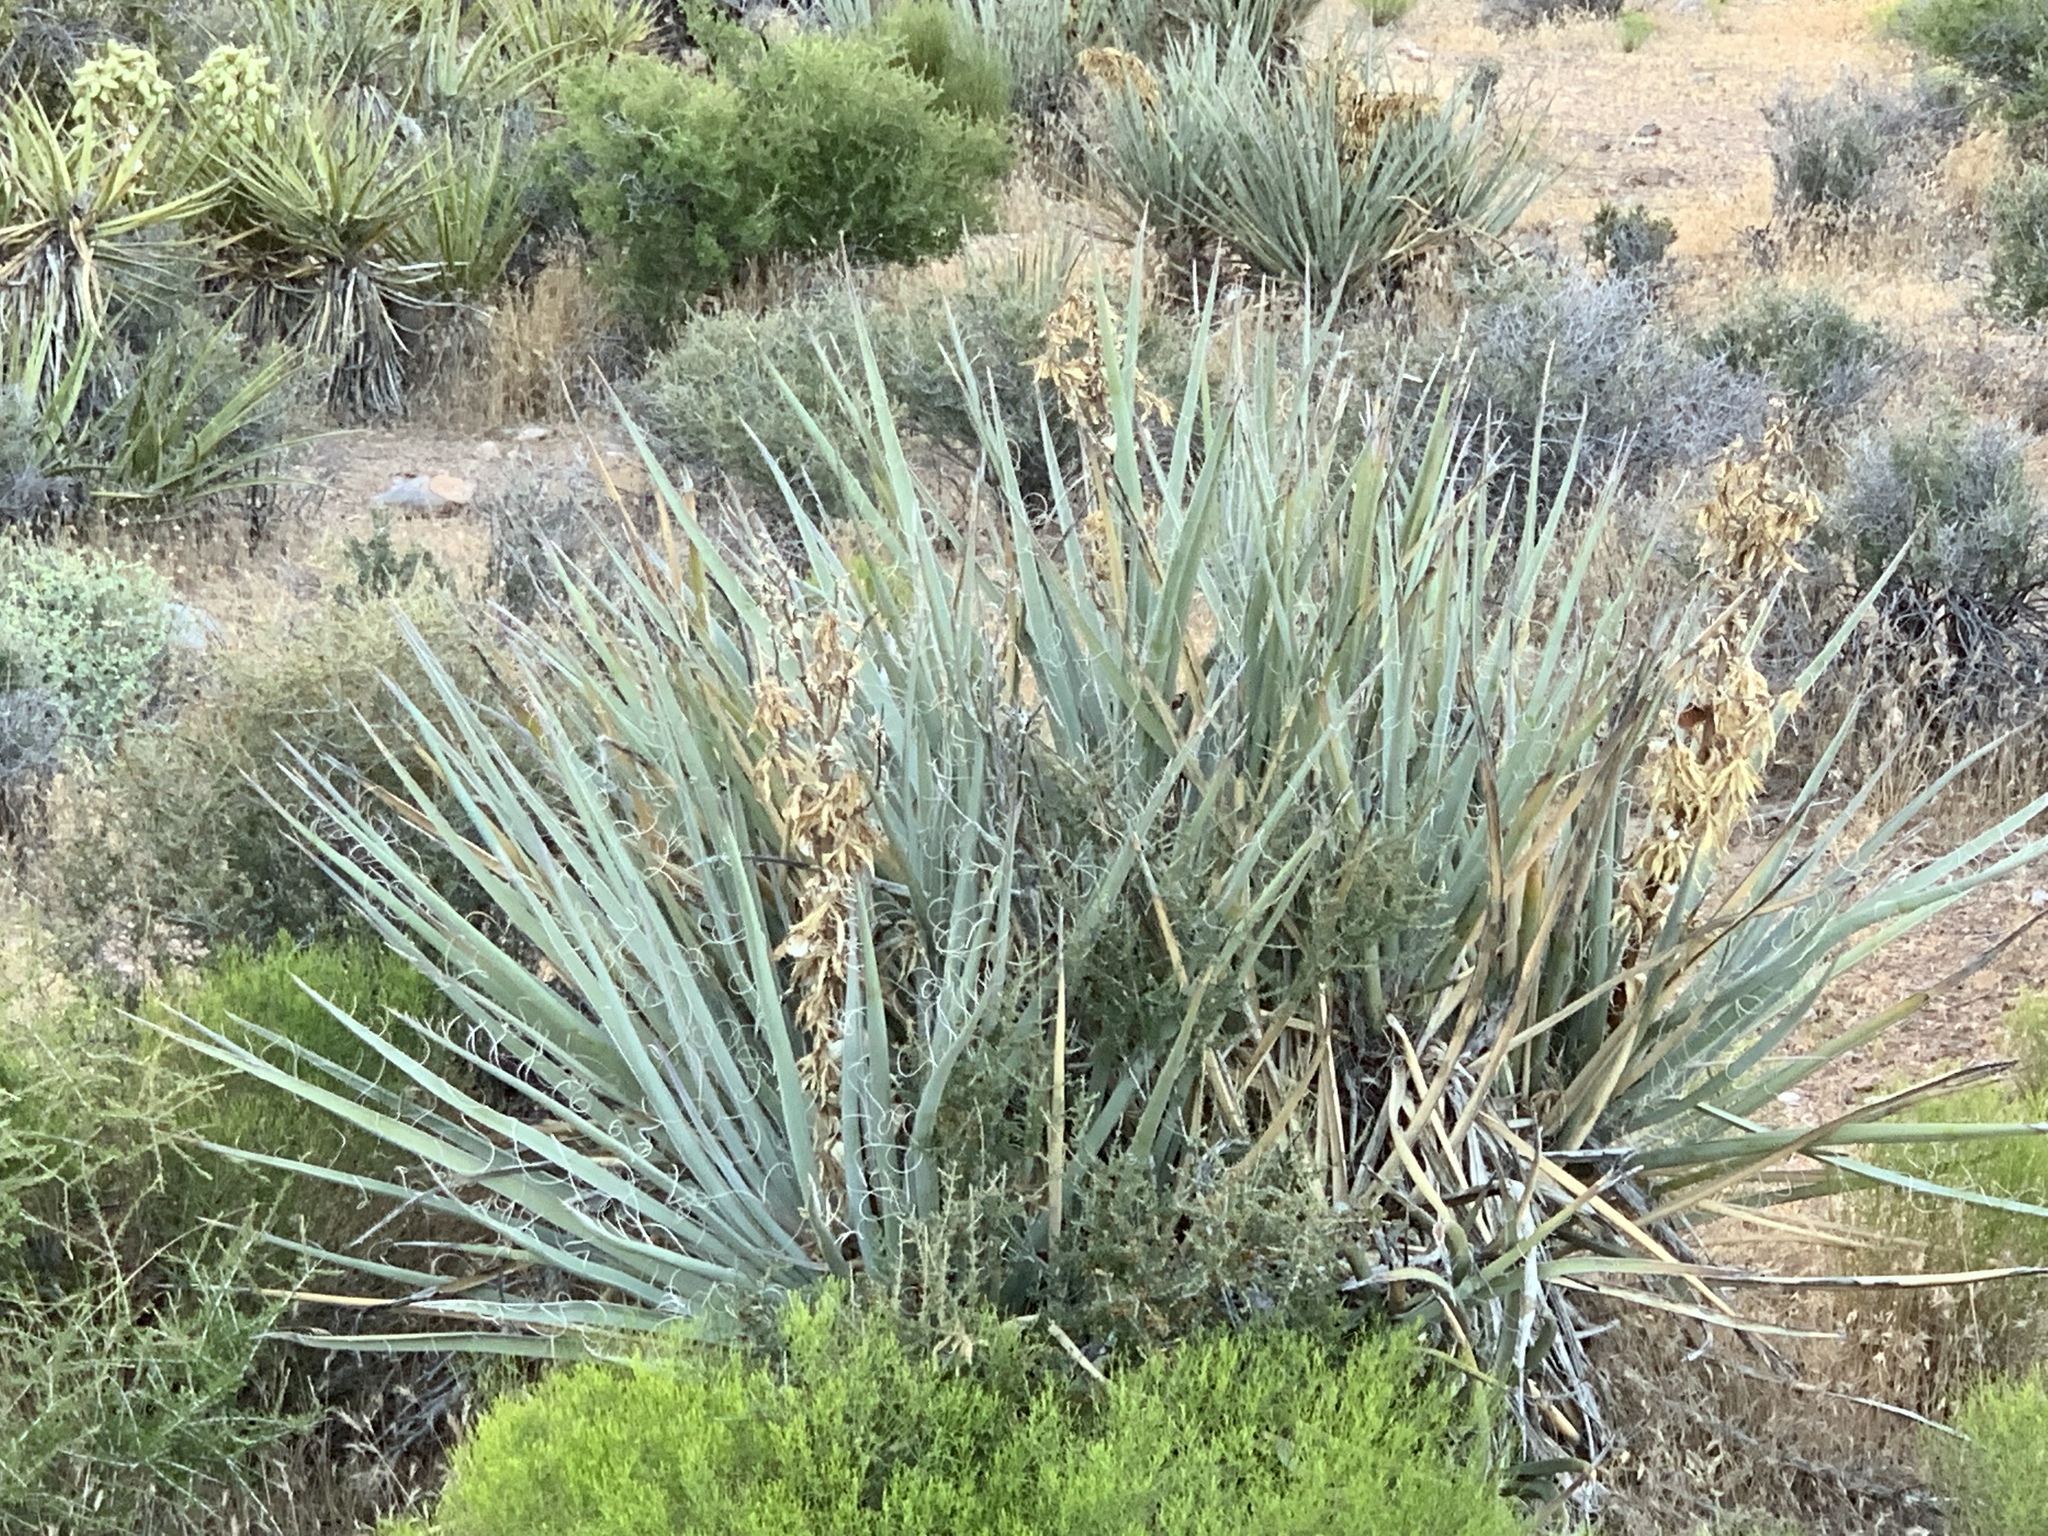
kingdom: Plantae
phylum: Tracheophyta
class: Liliopsida
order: Asparagales
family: Asparagaceae
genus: Yucca
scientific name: Yucca baccata
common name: Banana yucca
